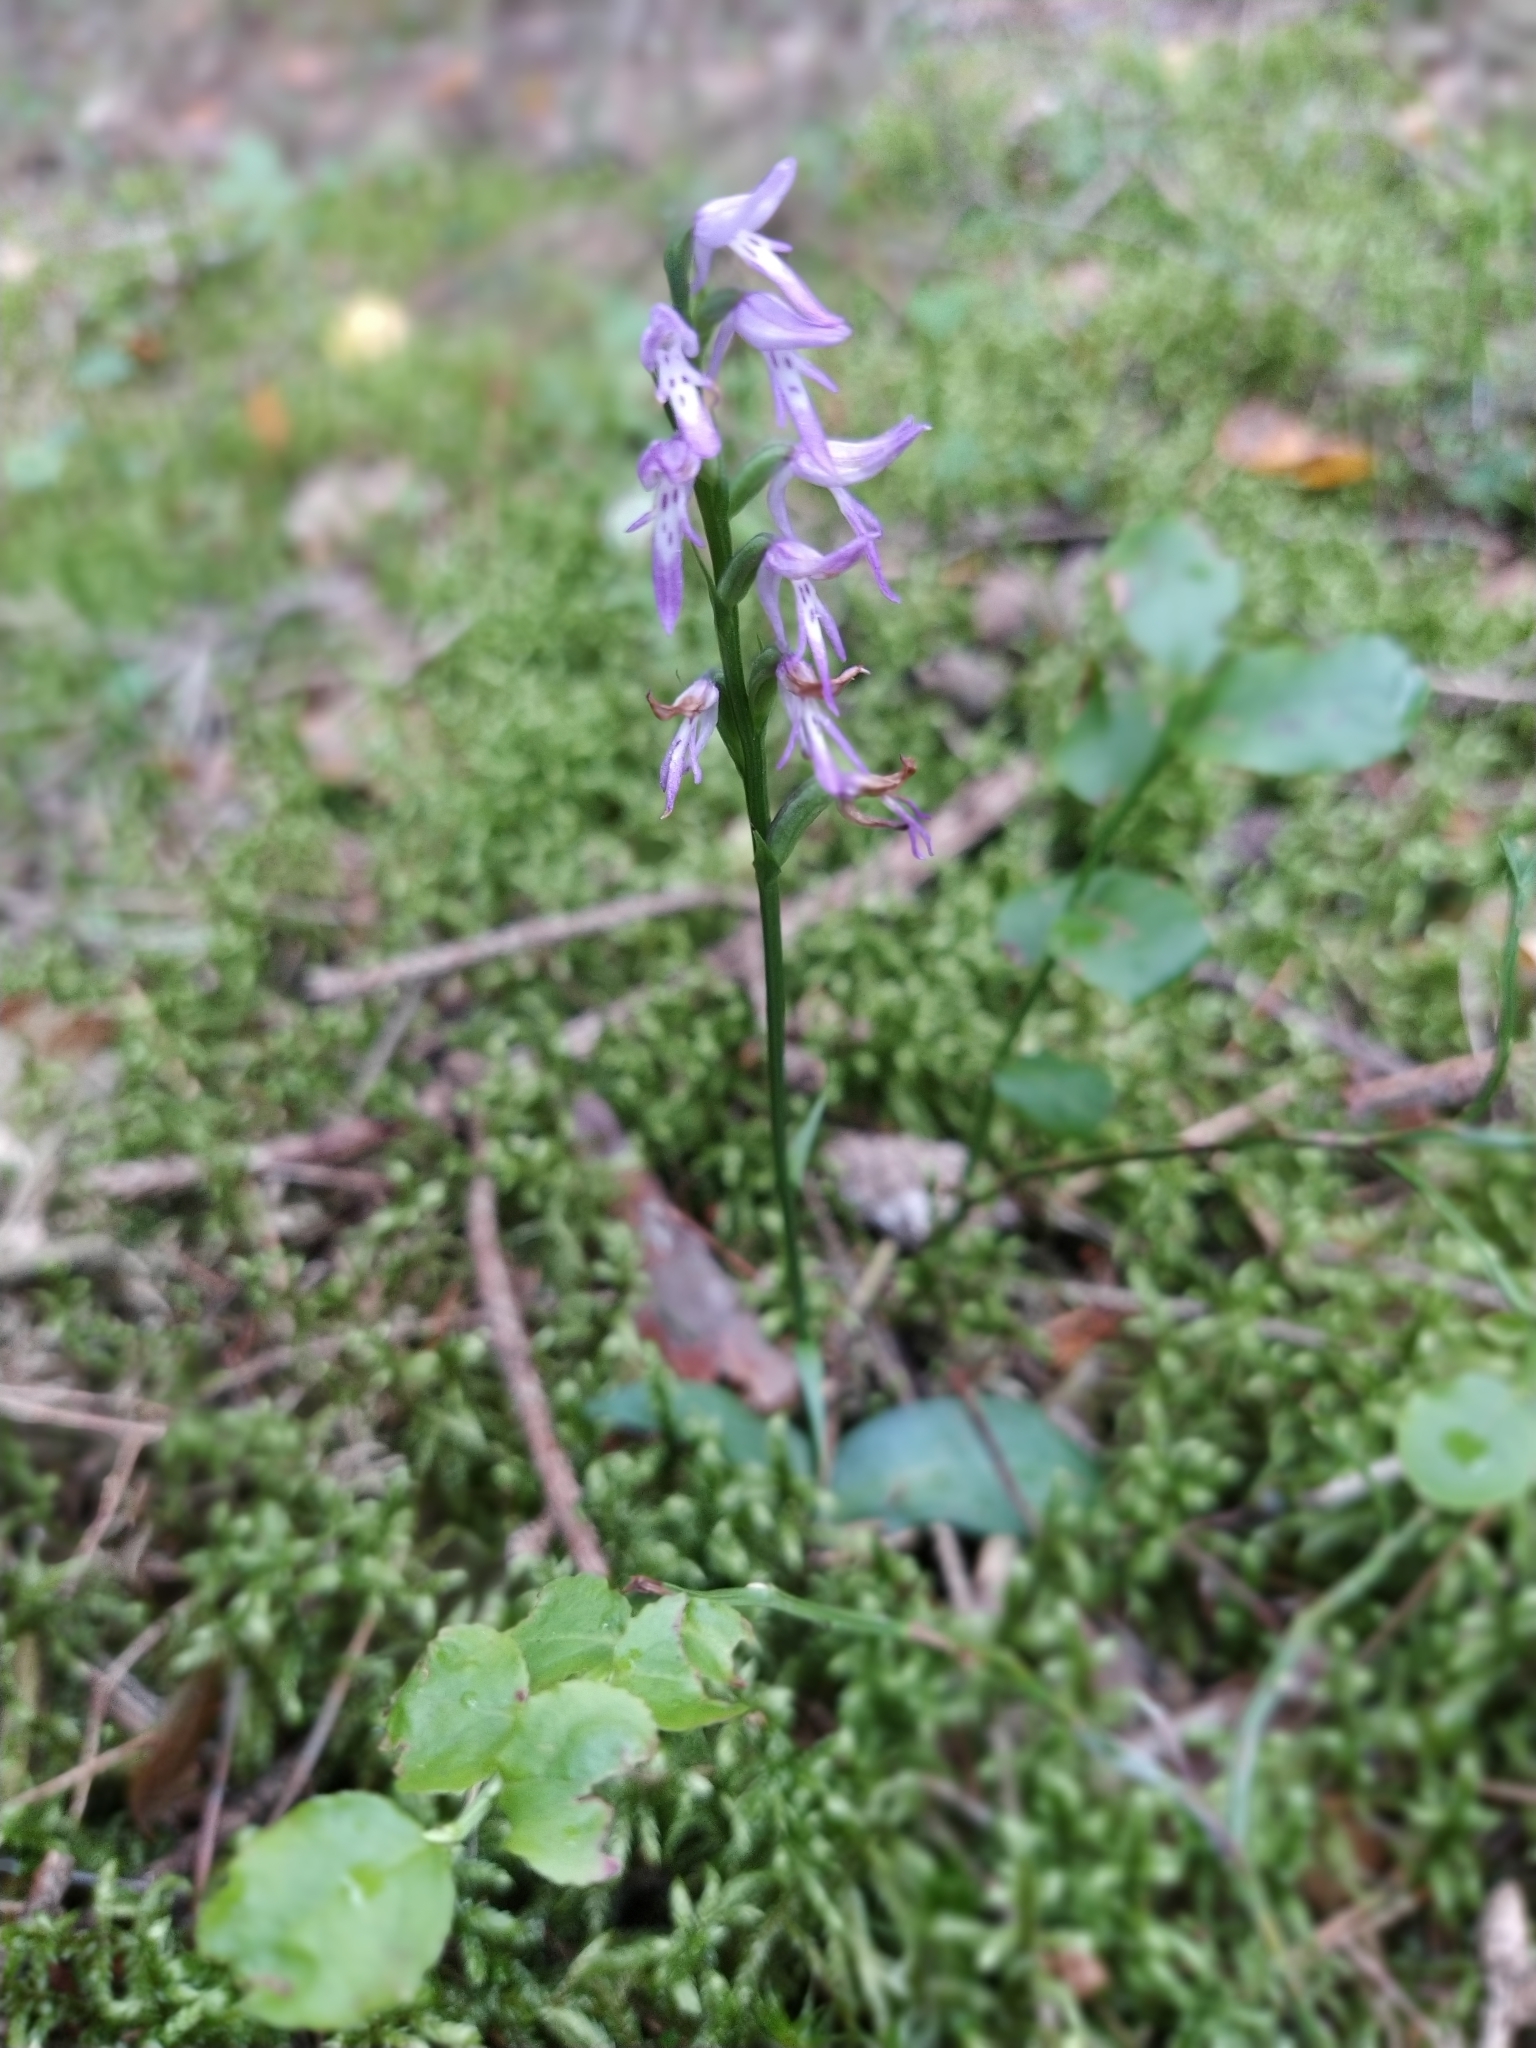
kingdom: Plantae
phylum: Tracheophyta
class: Liliopsida
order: Asparagales
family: Orchidaceae
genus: Hemipilia
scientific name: Hemipilia cucullata
